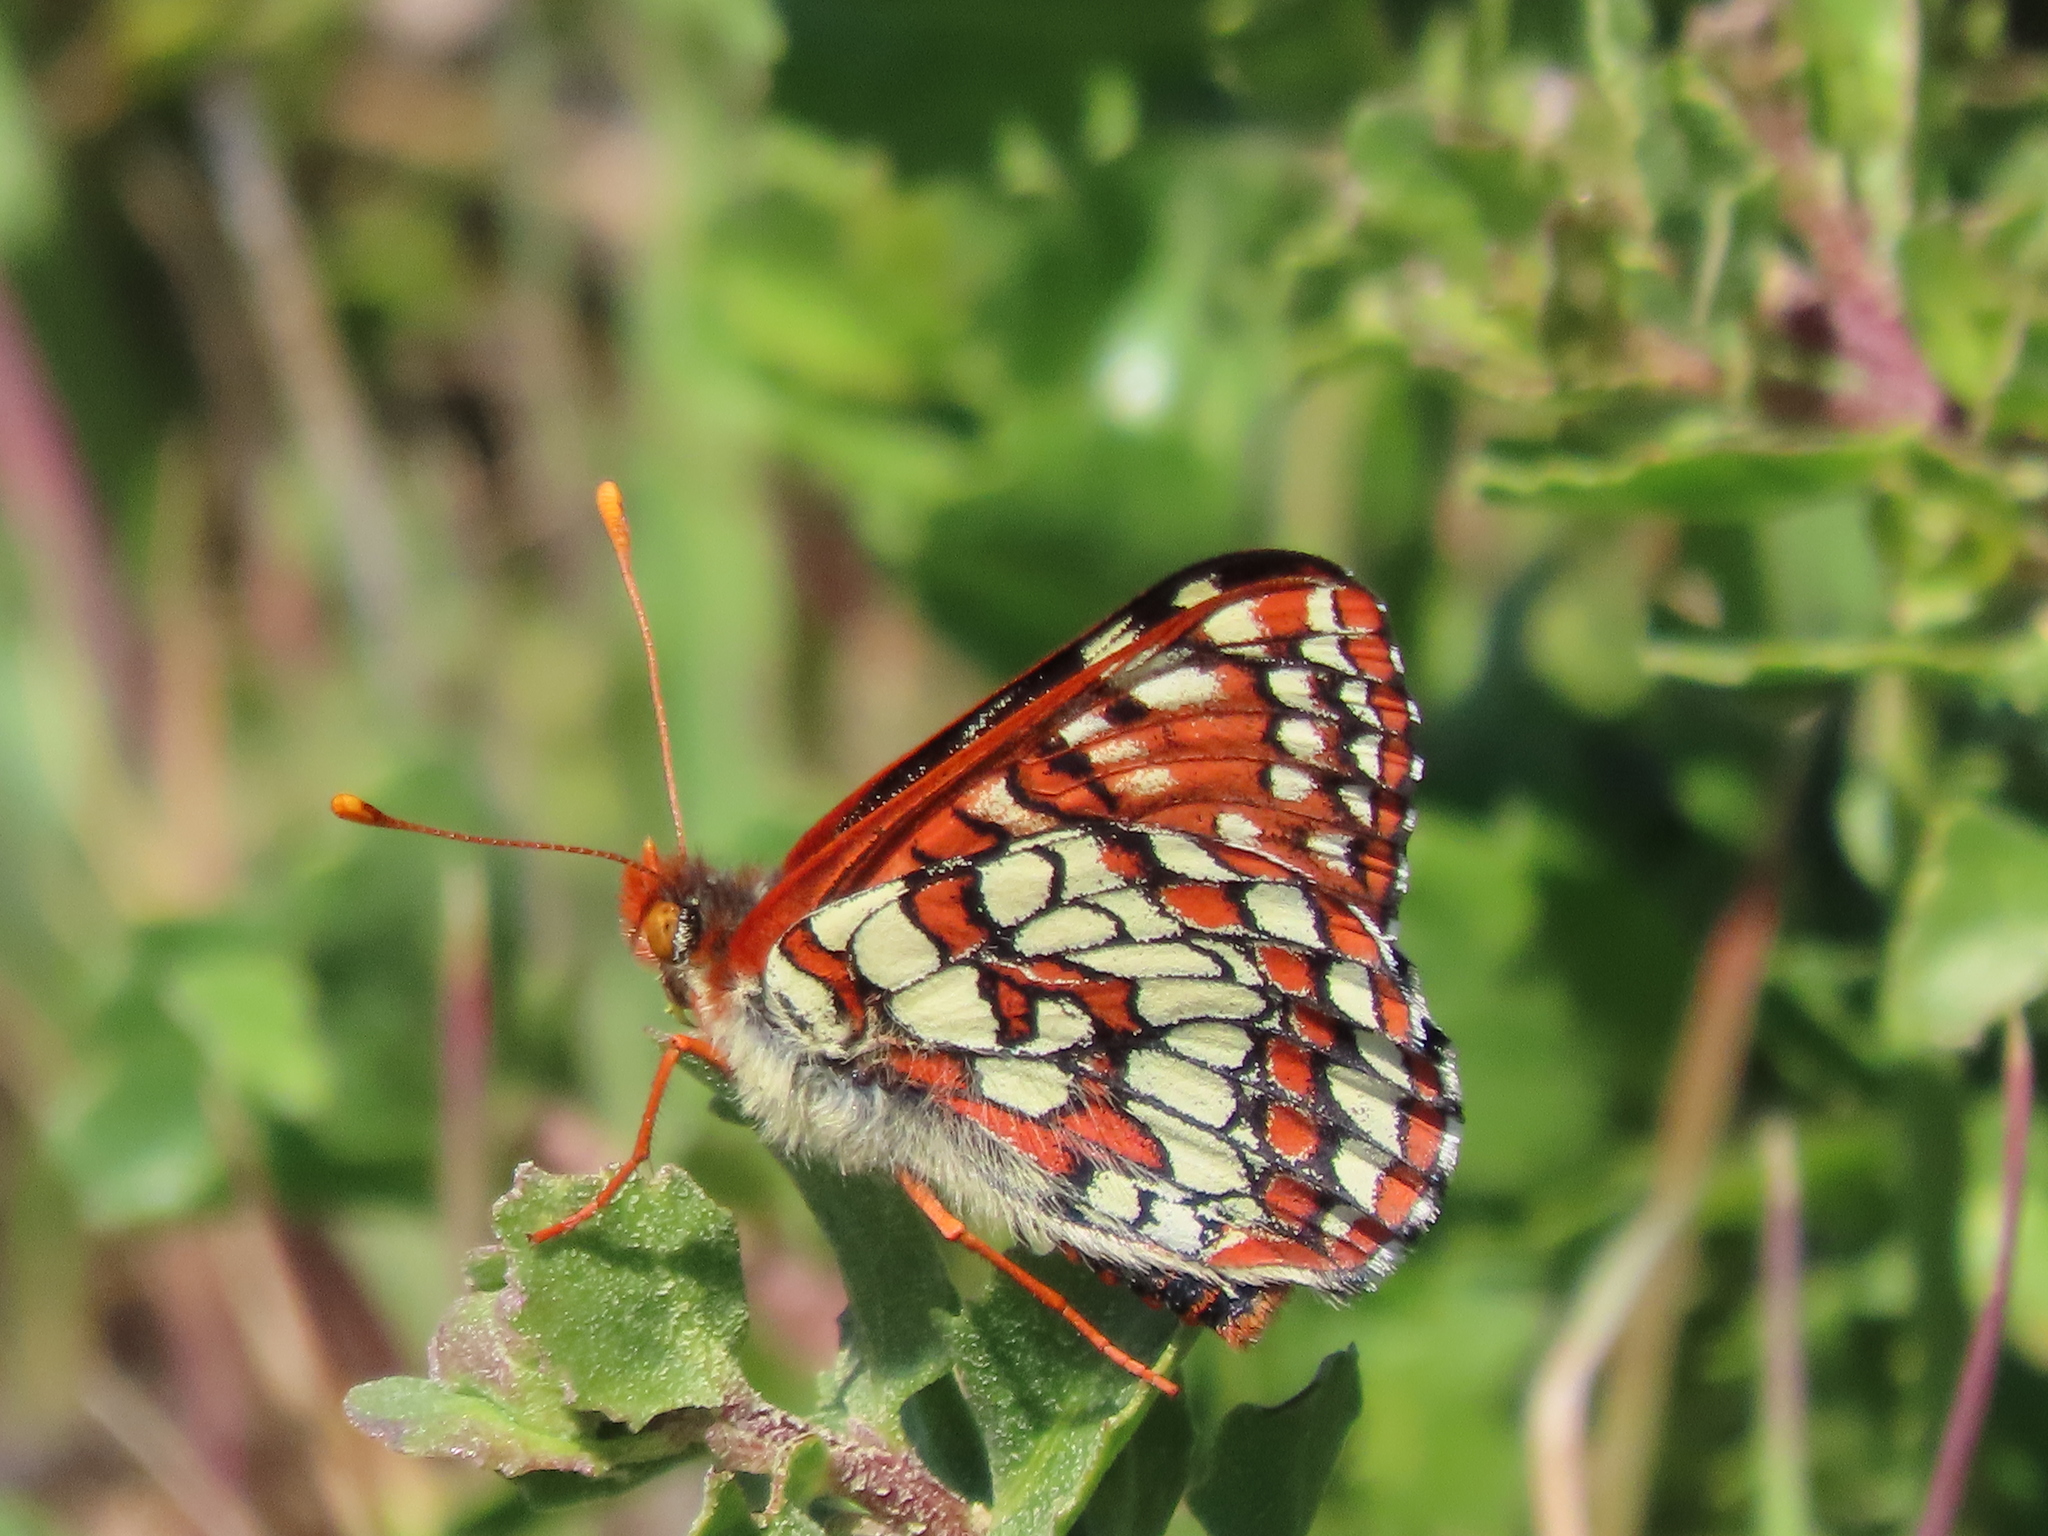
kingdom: Animalia
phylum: Arthropoda
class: Insecta
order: Lepidoptera
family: Nymphalidae
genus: Occidryas
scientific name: Occidryas chalcedona
